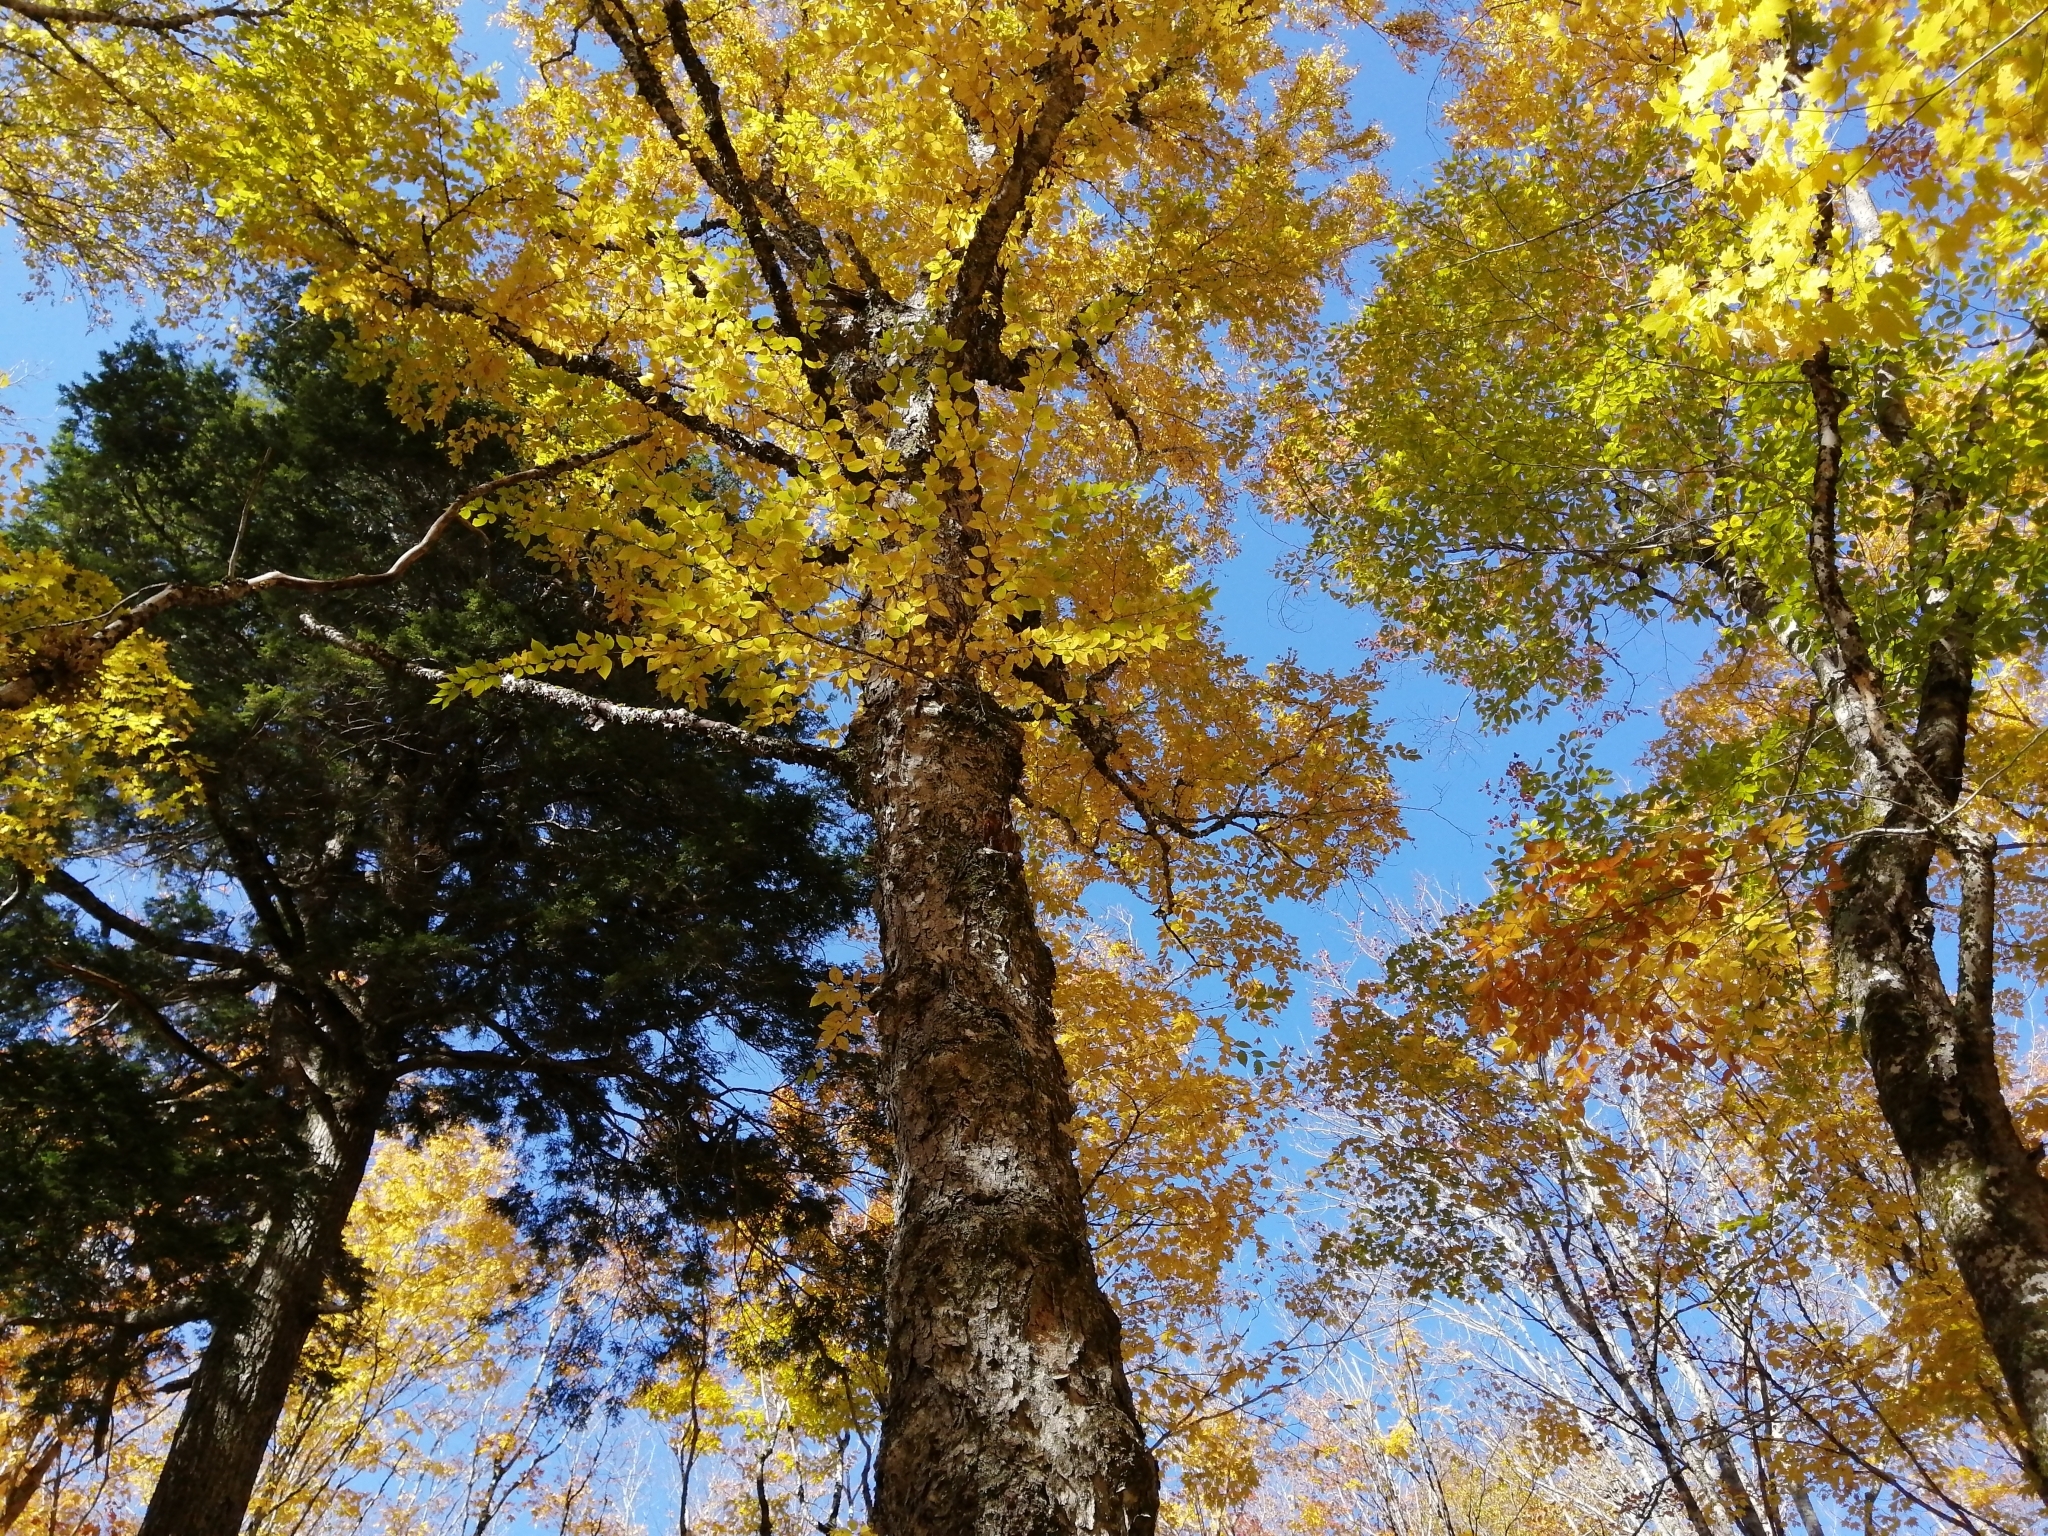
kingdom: Plantae
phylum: Tracheophyta
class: Magnoliopsida
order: Fagales
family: Betulaceae
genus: Betula
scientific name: Betula alleghaniensis
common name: Yellow birch
